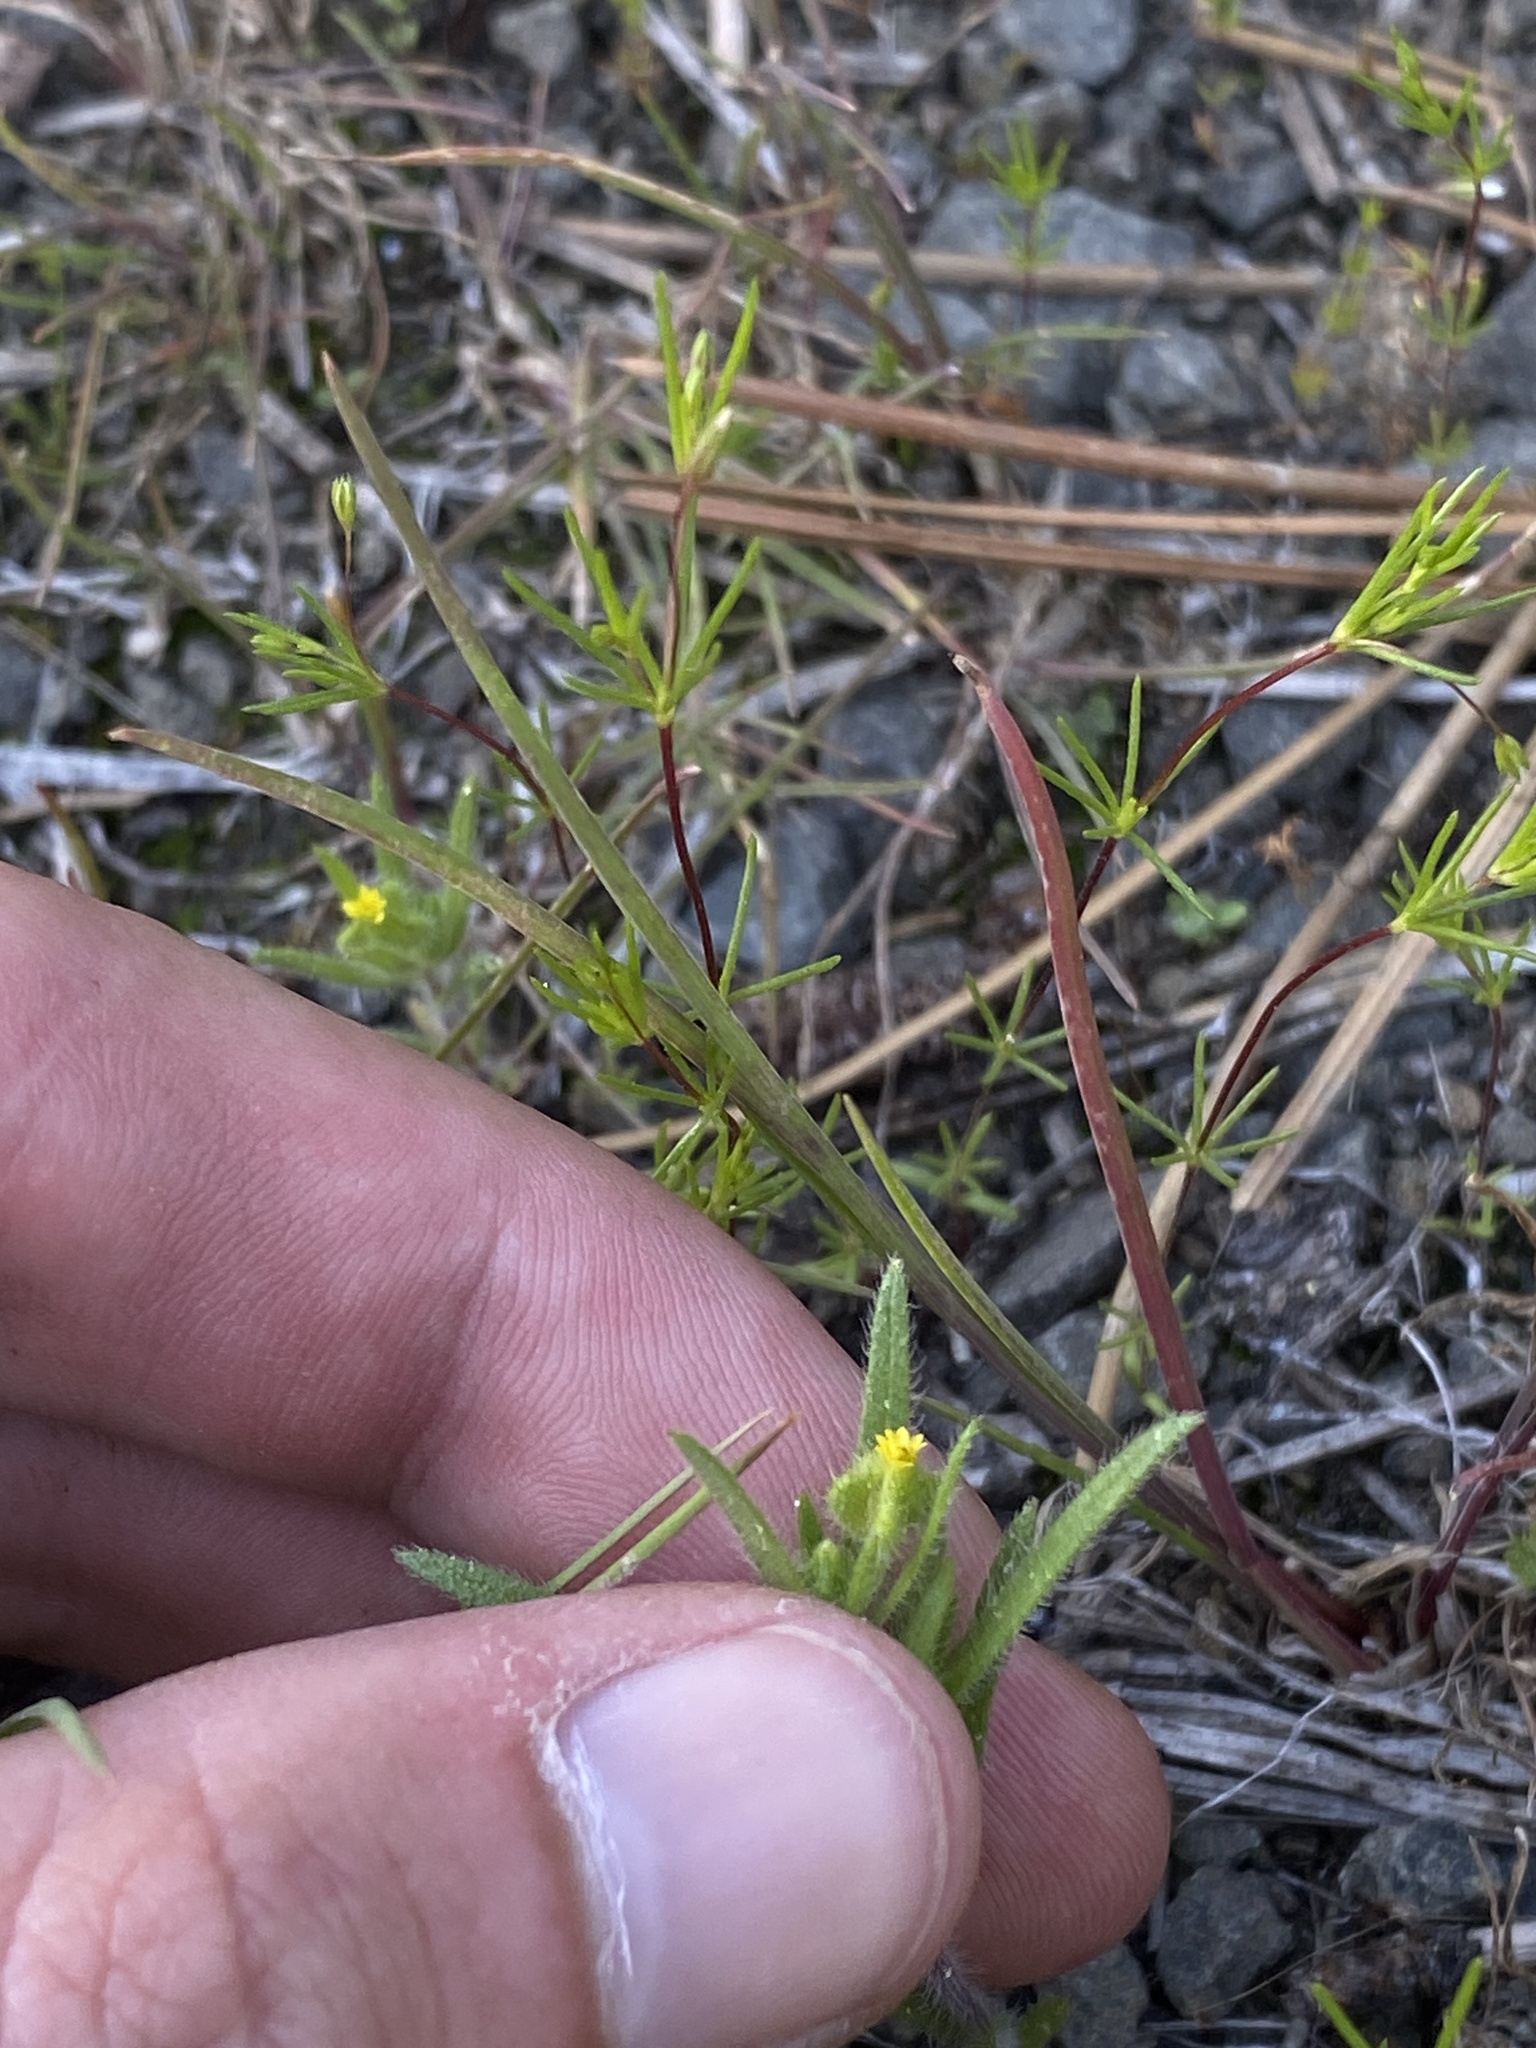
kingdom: Plantae
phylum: Tracheophyta
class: Magnoliopsida
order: Asterales
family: Asteraceae
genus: Hemizonella
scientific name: Hemizonella minima
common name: Opposite-leaved tarweed
